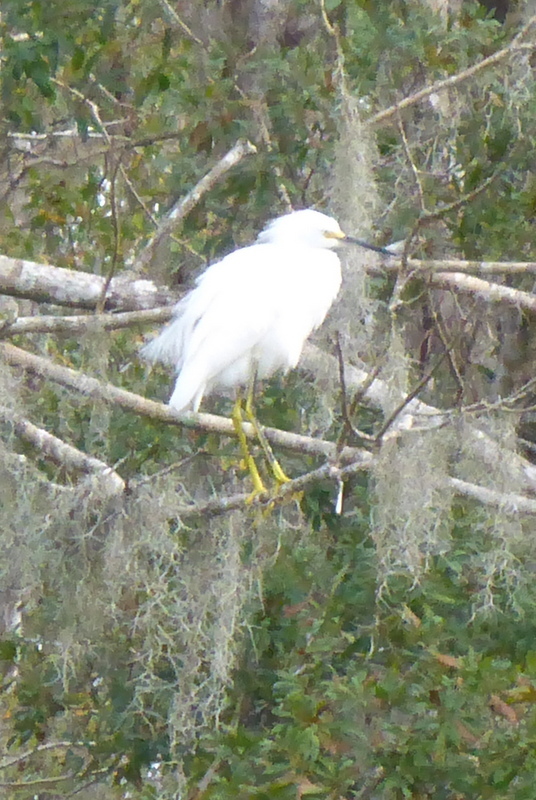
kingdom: Animalia
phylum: Chordata
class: Aves
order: Pelecaniformes
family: Ardeidae
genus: Egretta
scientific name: Egretta thula
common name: Snowy egret
